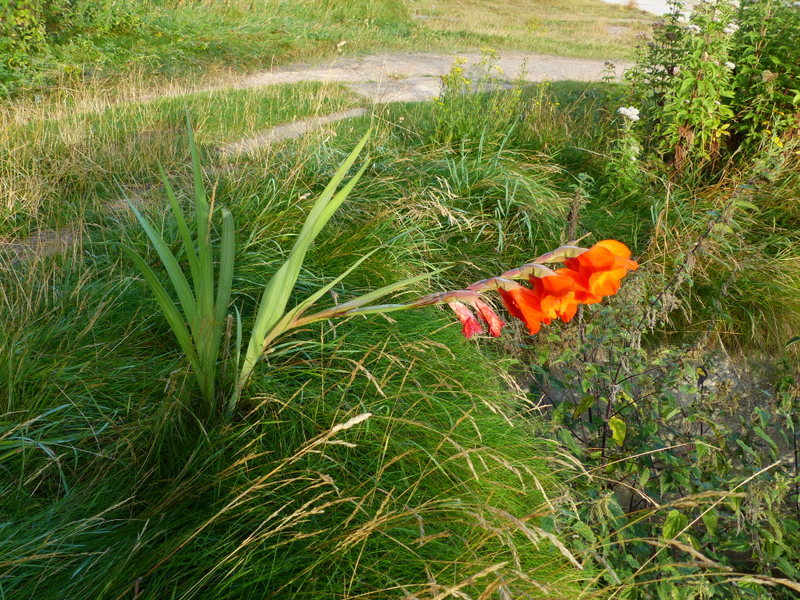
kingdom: Plantae
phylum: Tracheophyta
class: Liliopsida
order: Asparagales
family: Iridaceae
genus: Gladiolus
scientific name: Gladiolus hortulanus
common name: Large-flowered gladiolus
